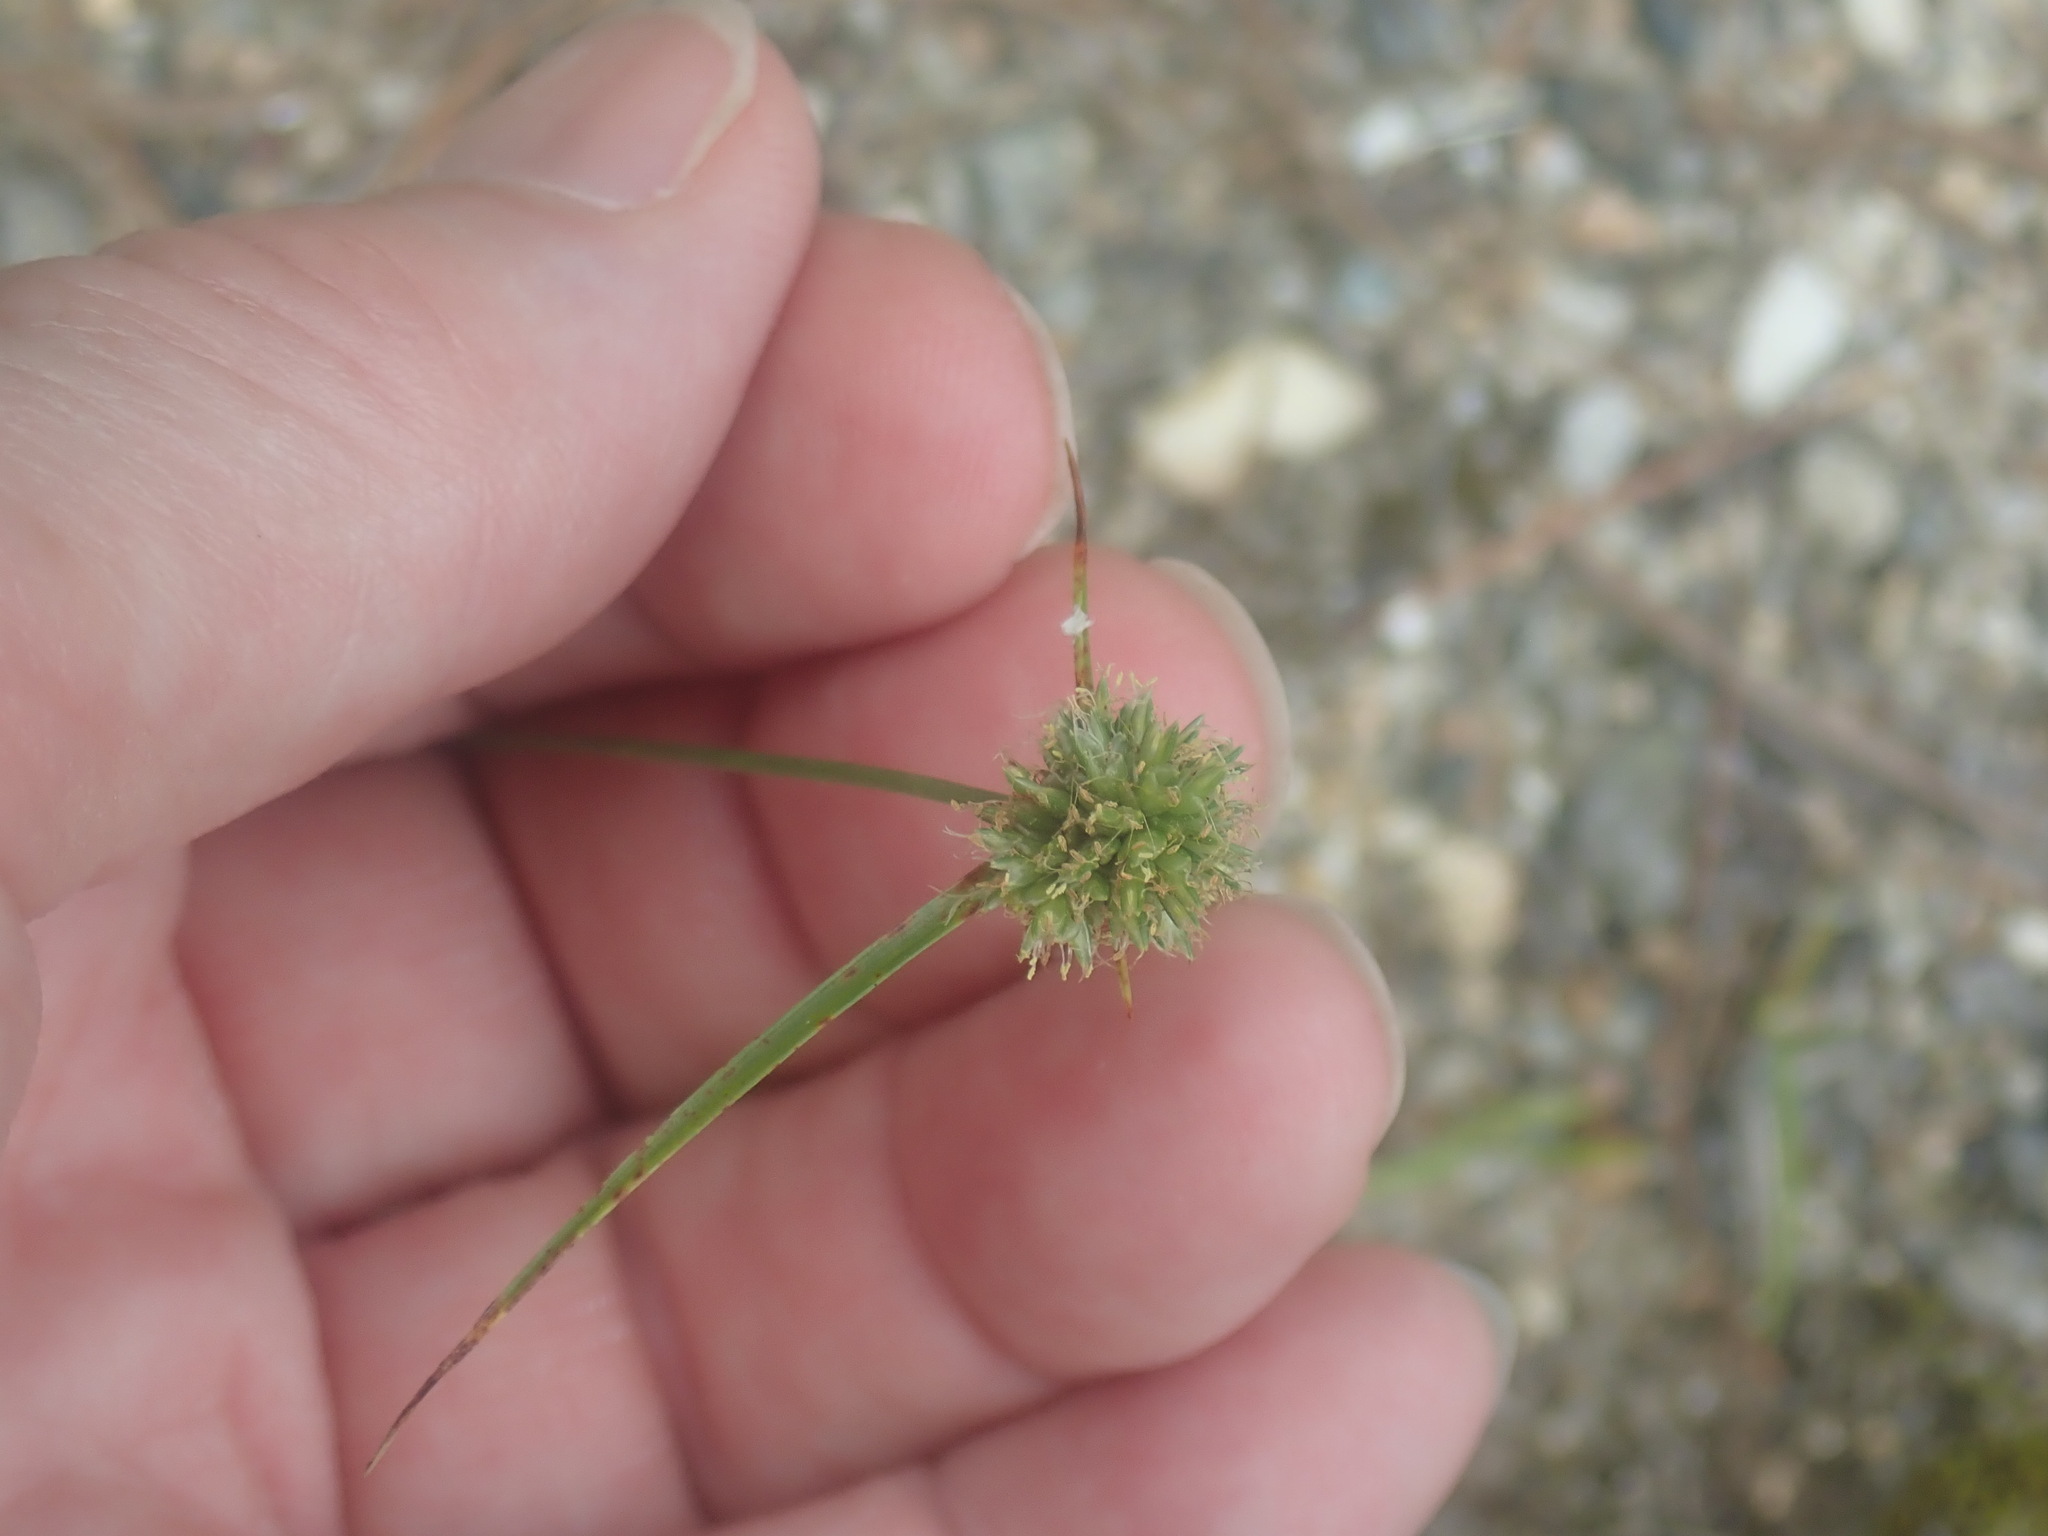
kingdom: Plantae
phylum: Tracheophyta
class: Liliopsida
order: Poales
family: Cyperaceae
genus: Cyperus
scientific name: Cyperus lupulinus
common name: Great plains flatsedge
